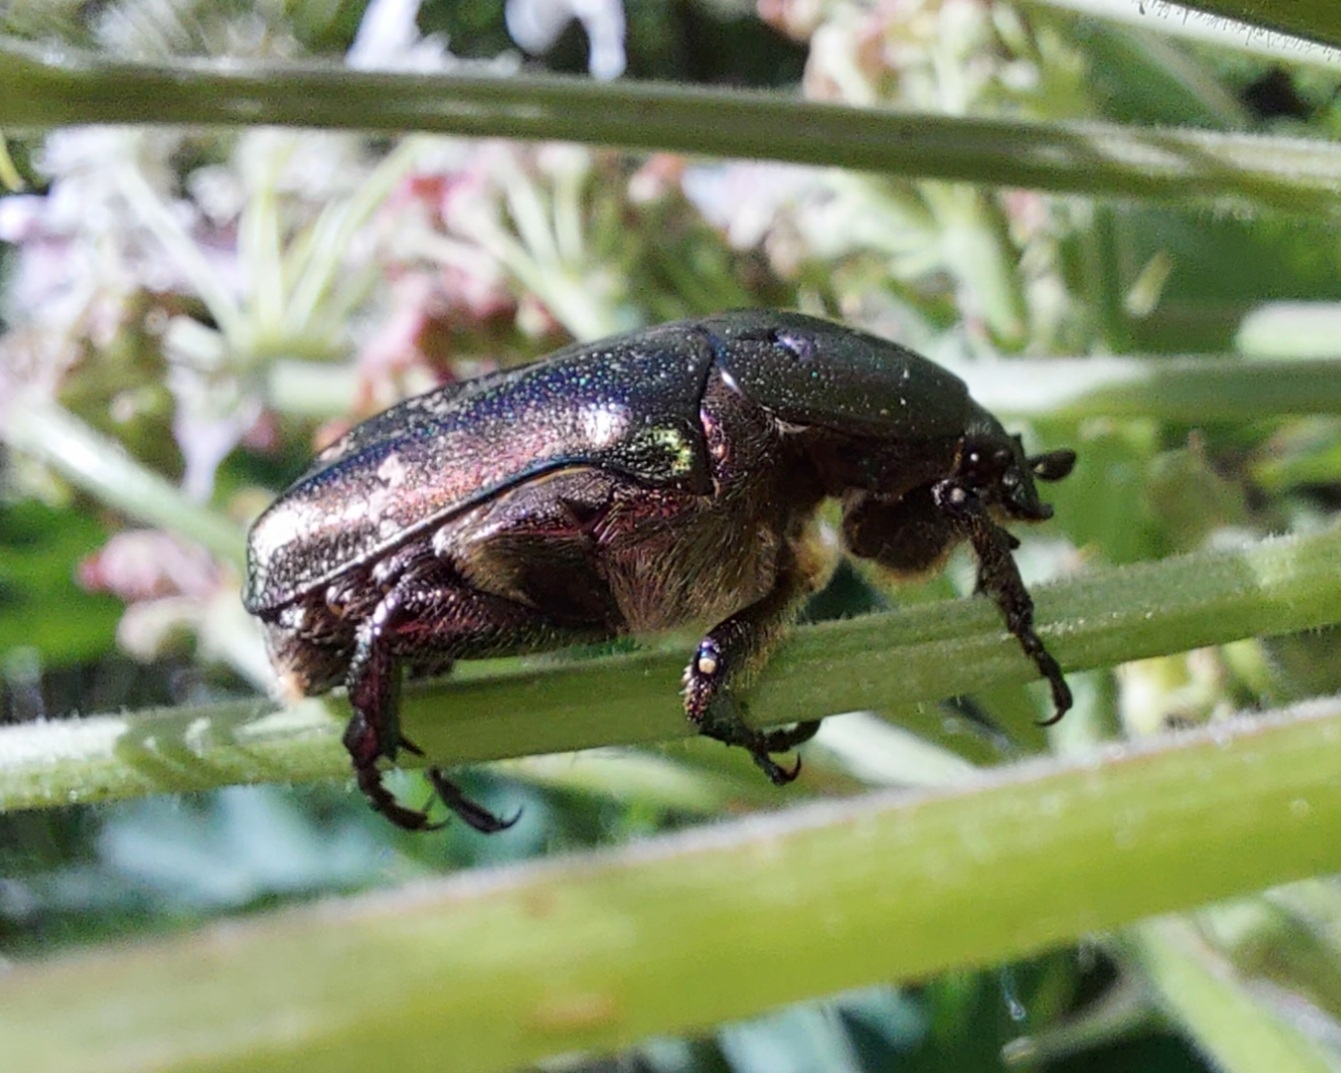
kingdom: Animalia
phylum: Arthropoda
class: Insecta
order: Coleoptera
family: Scarabaeidae
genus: Protaetia
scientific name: Protaetia cuprea
